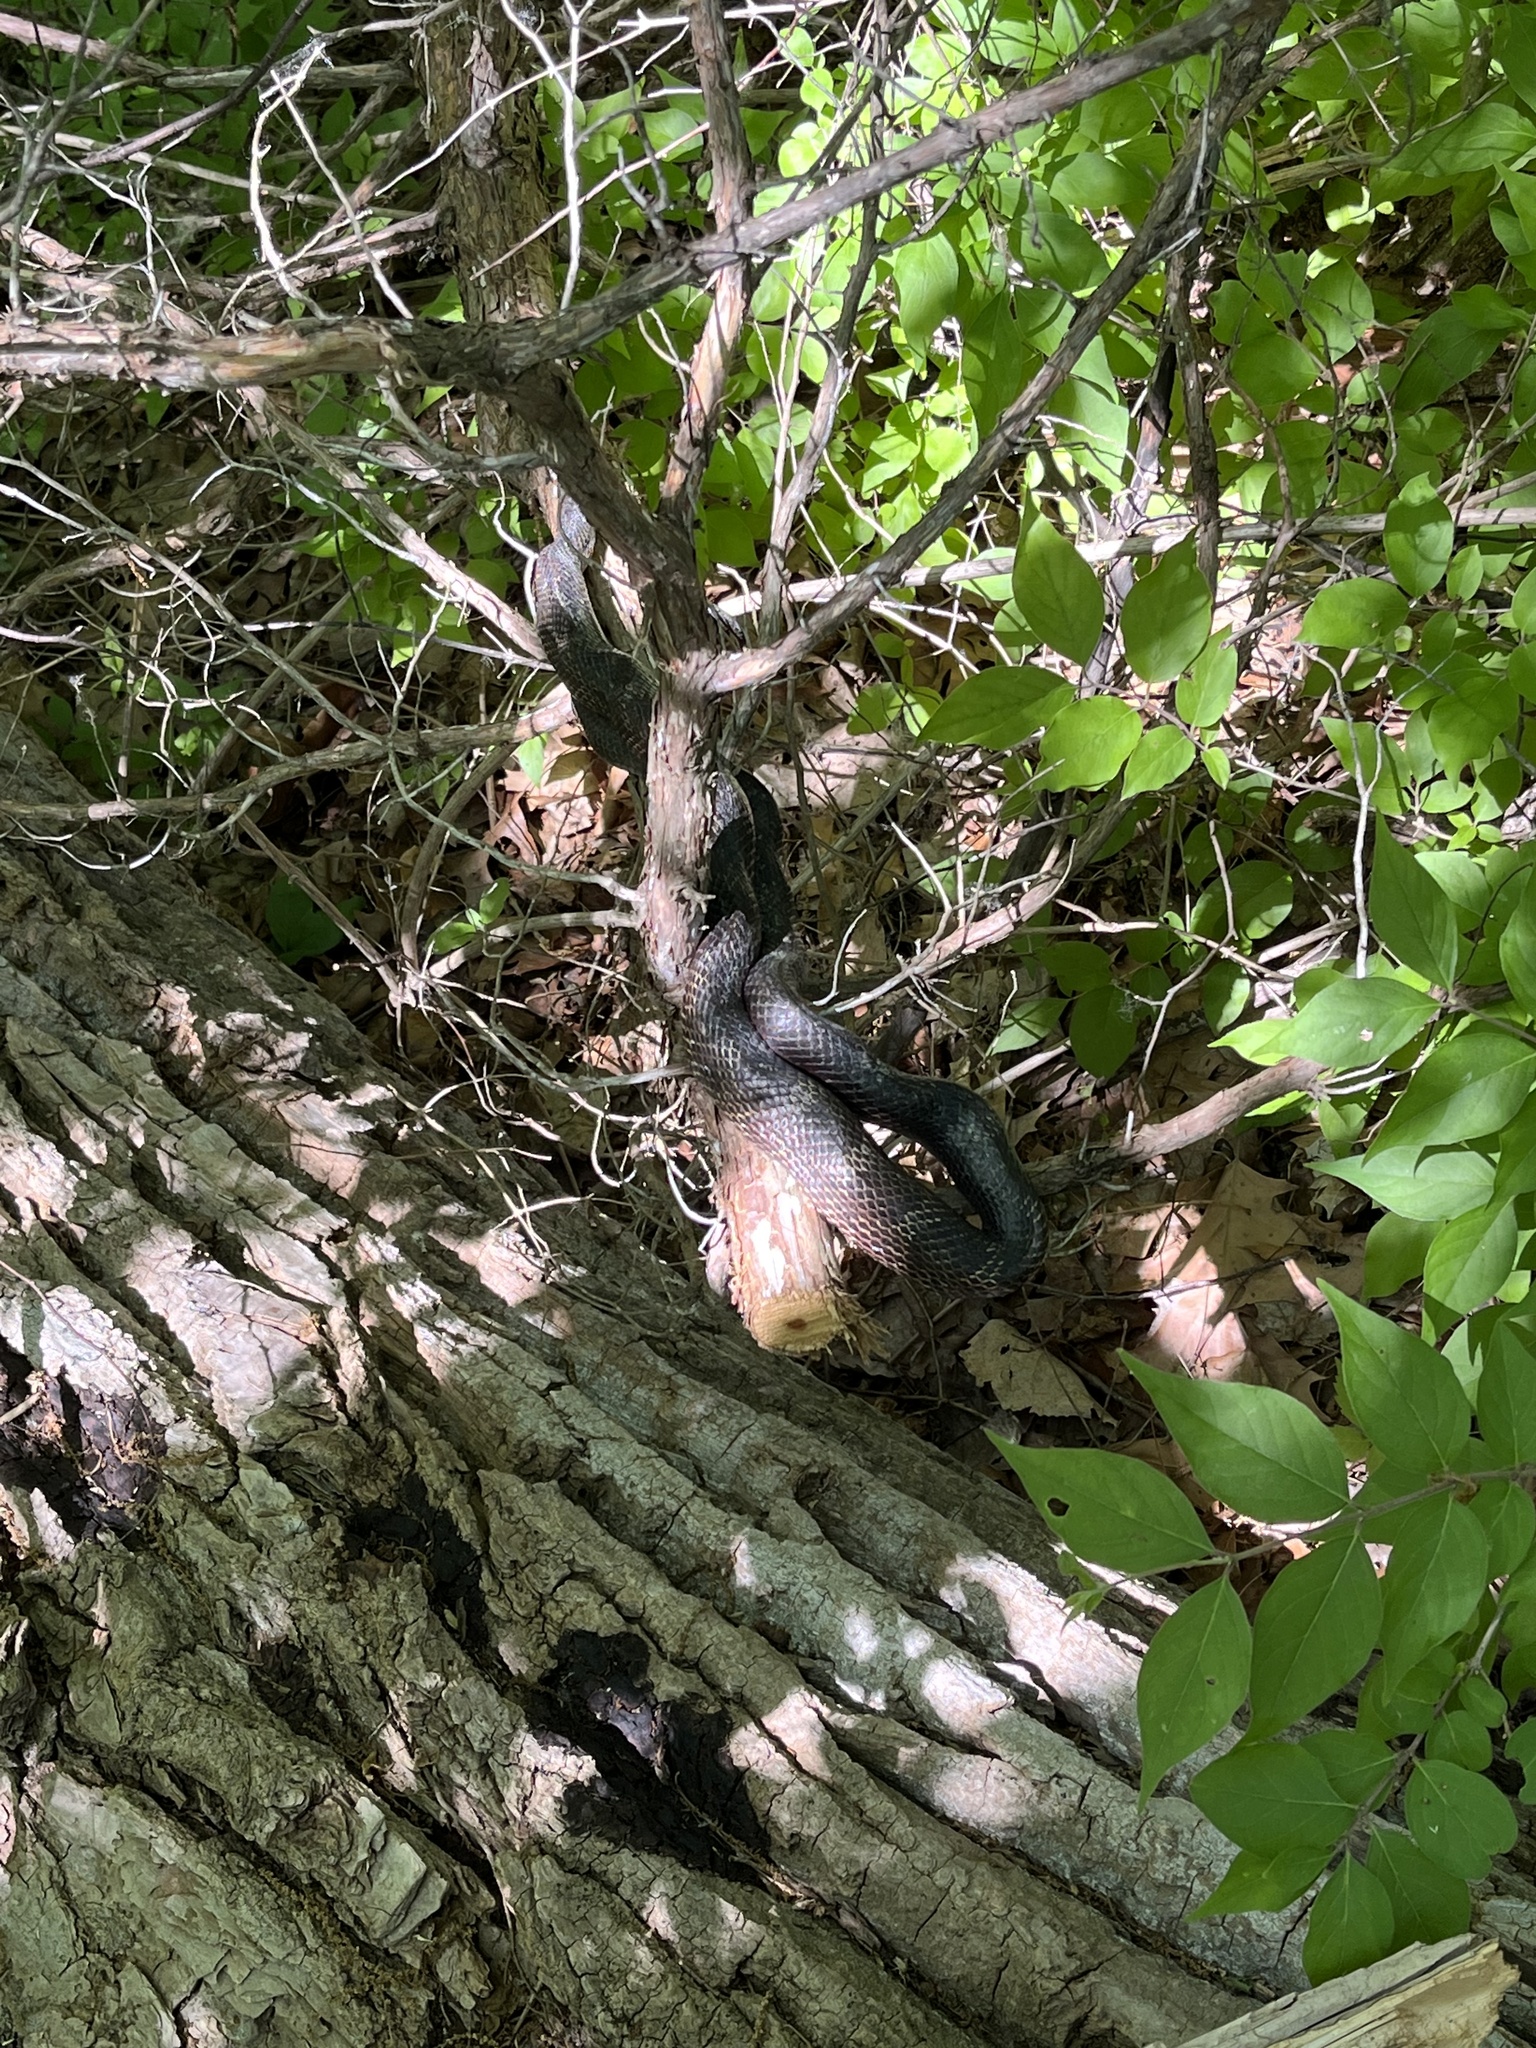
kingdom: Animalia
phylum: Chordata
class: Squamata
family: Colubridae
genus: Pantherophis
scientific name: Pantherophis spiloides
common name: Gray rat snake
